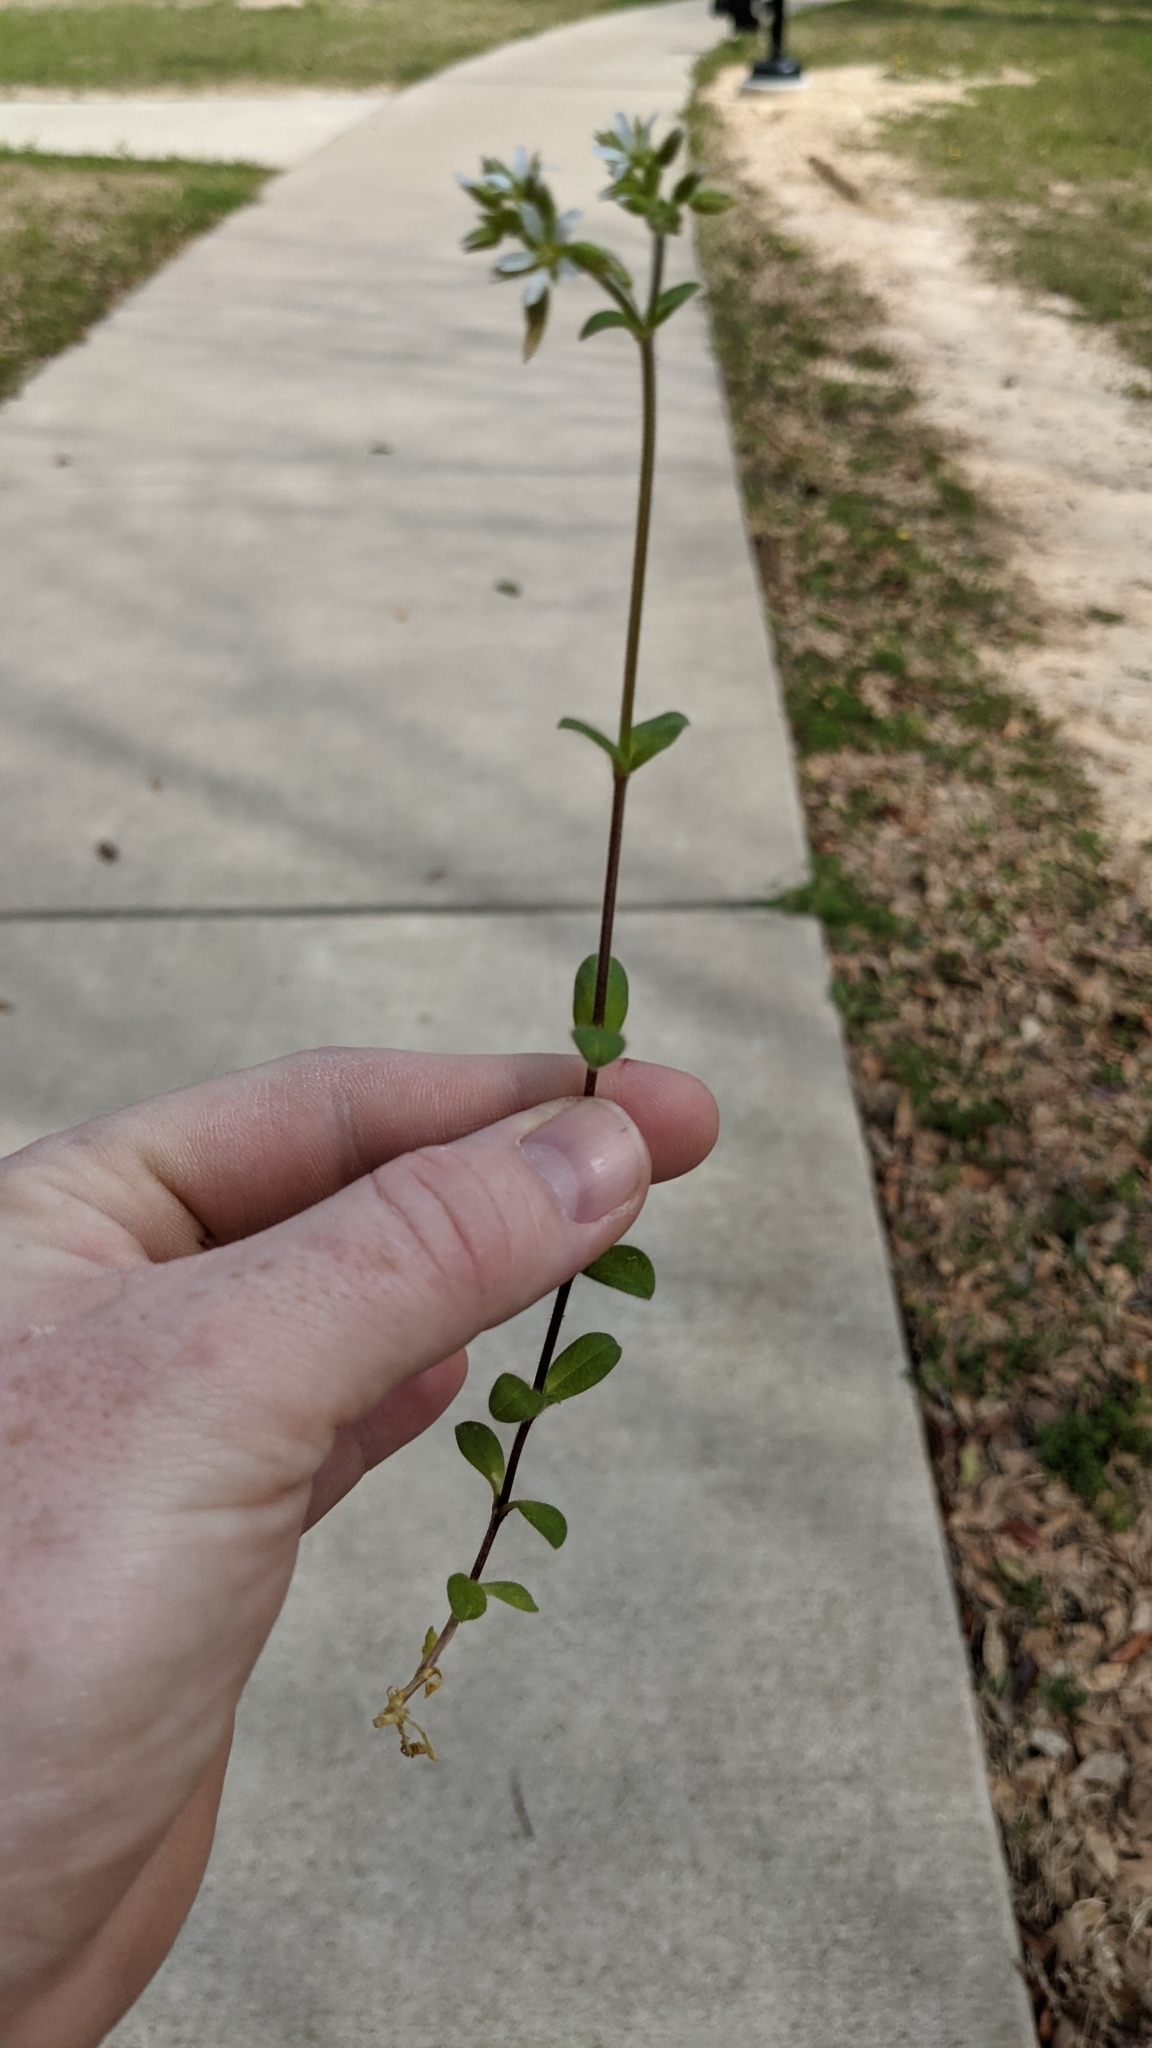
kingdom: Plantae
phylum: Tracheophyta
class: Magnoliopsida
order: Caryophyllales
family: Caryophyllaceae
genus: Cerastium
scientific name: Cerastium glomeratum
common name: Sticky chickweed
